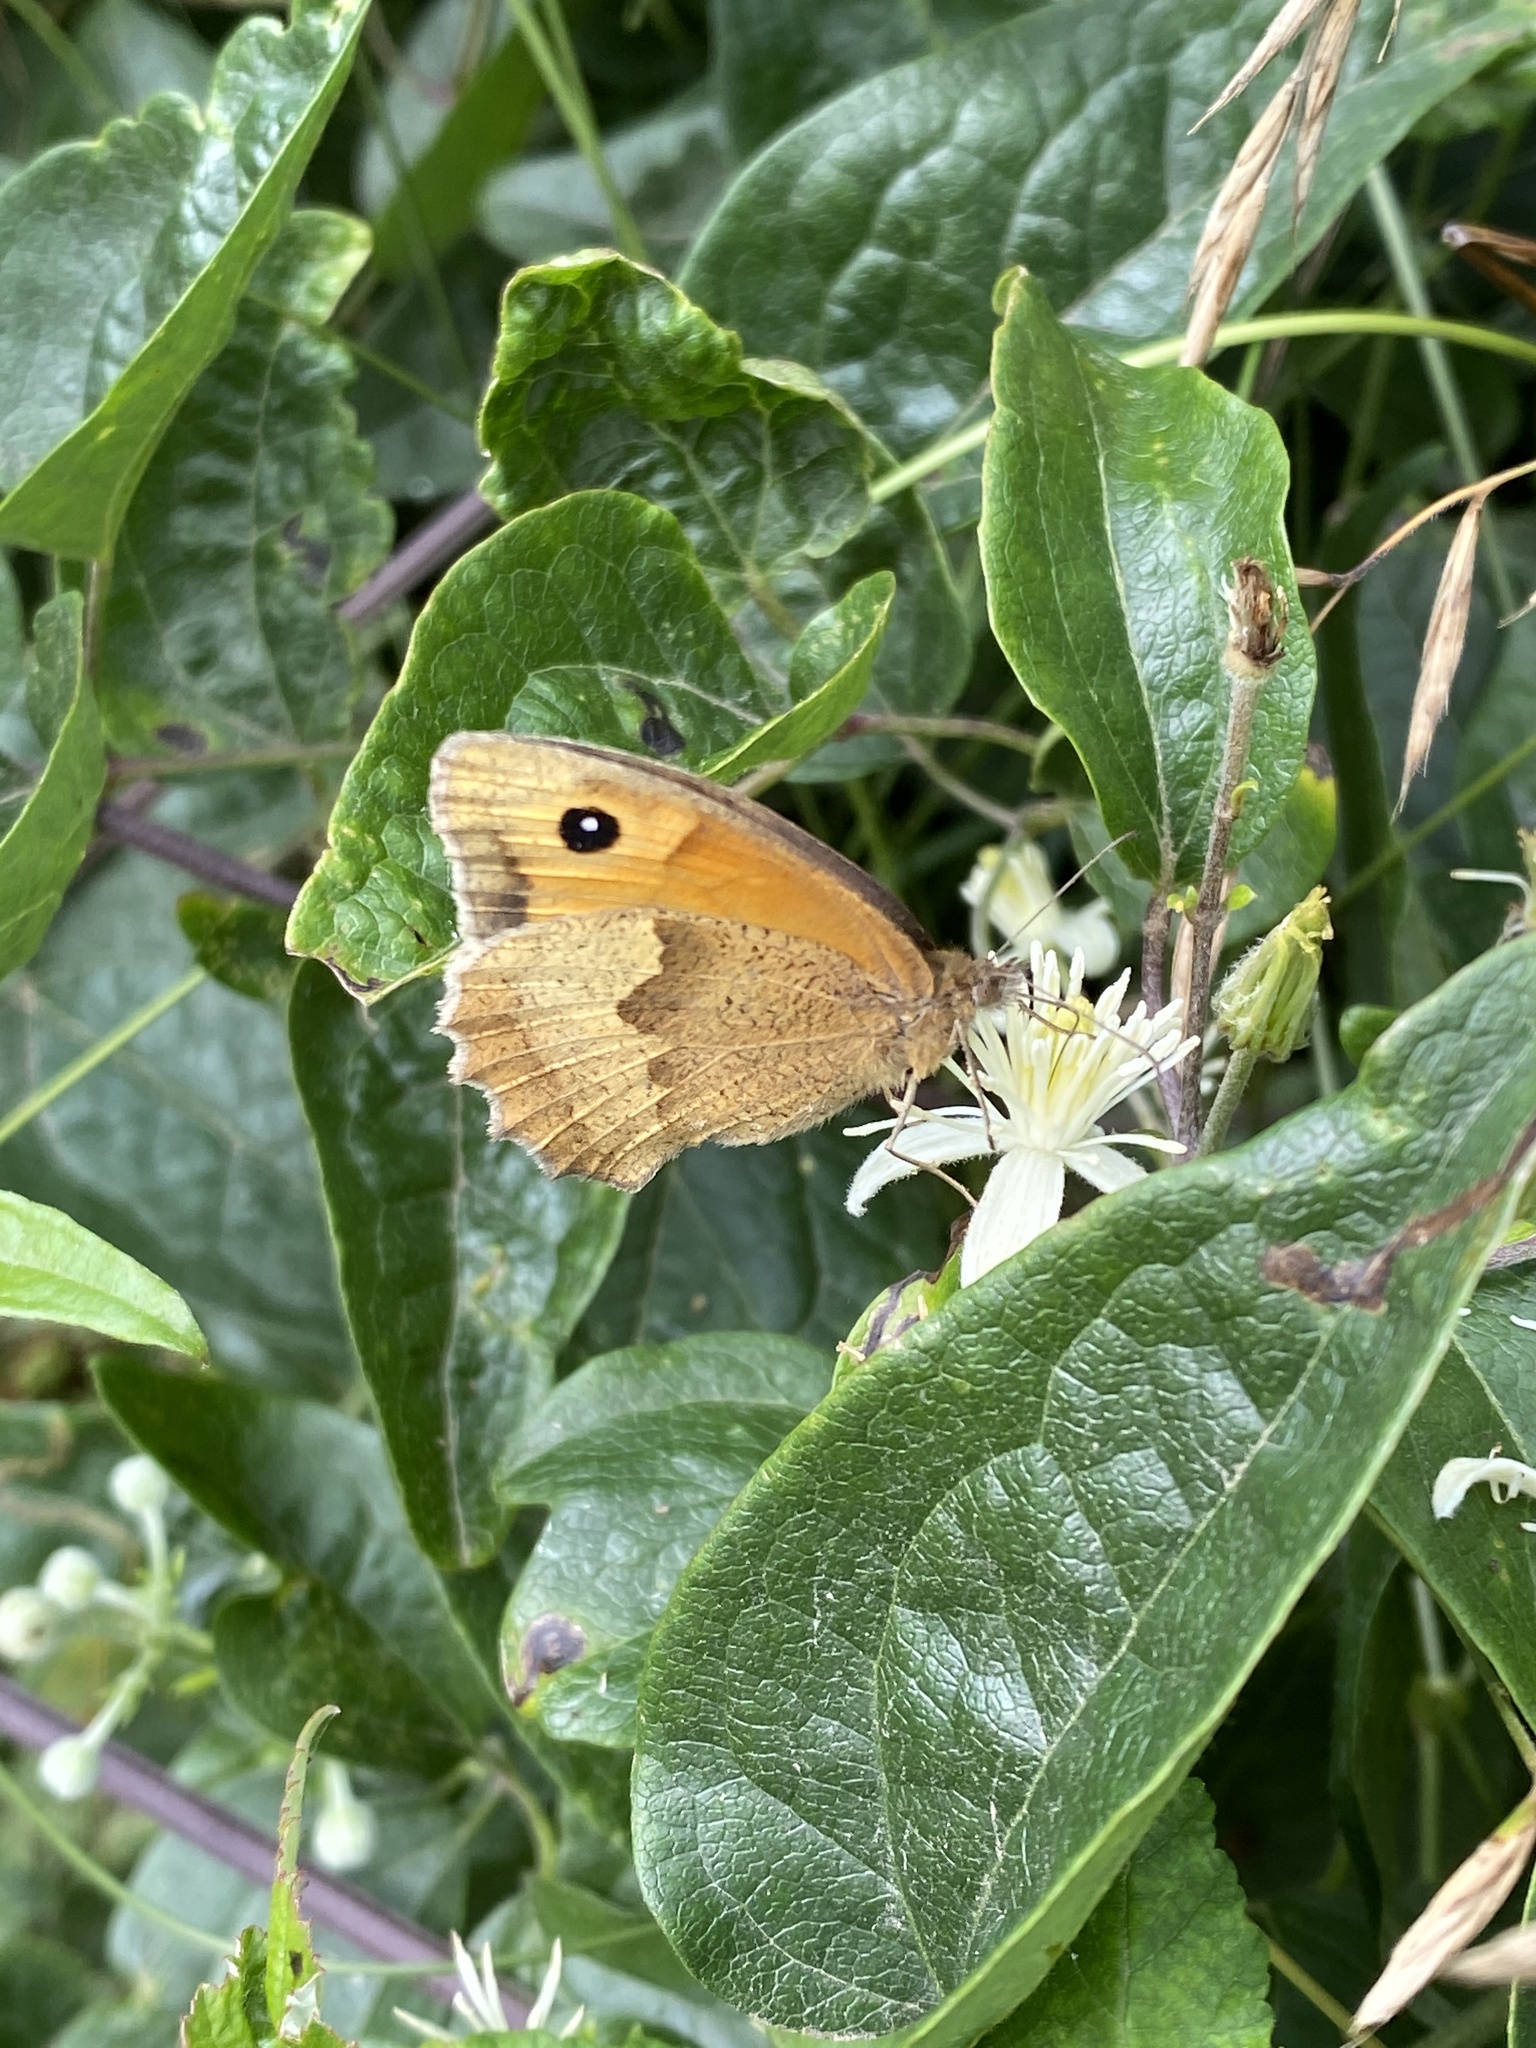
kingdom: Animalia
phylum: Arthropoda
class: Insecta
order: Lepidoptera
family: Nymphalidae
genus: Maniola
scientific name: Maniola jurtina
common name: Meadow brown
